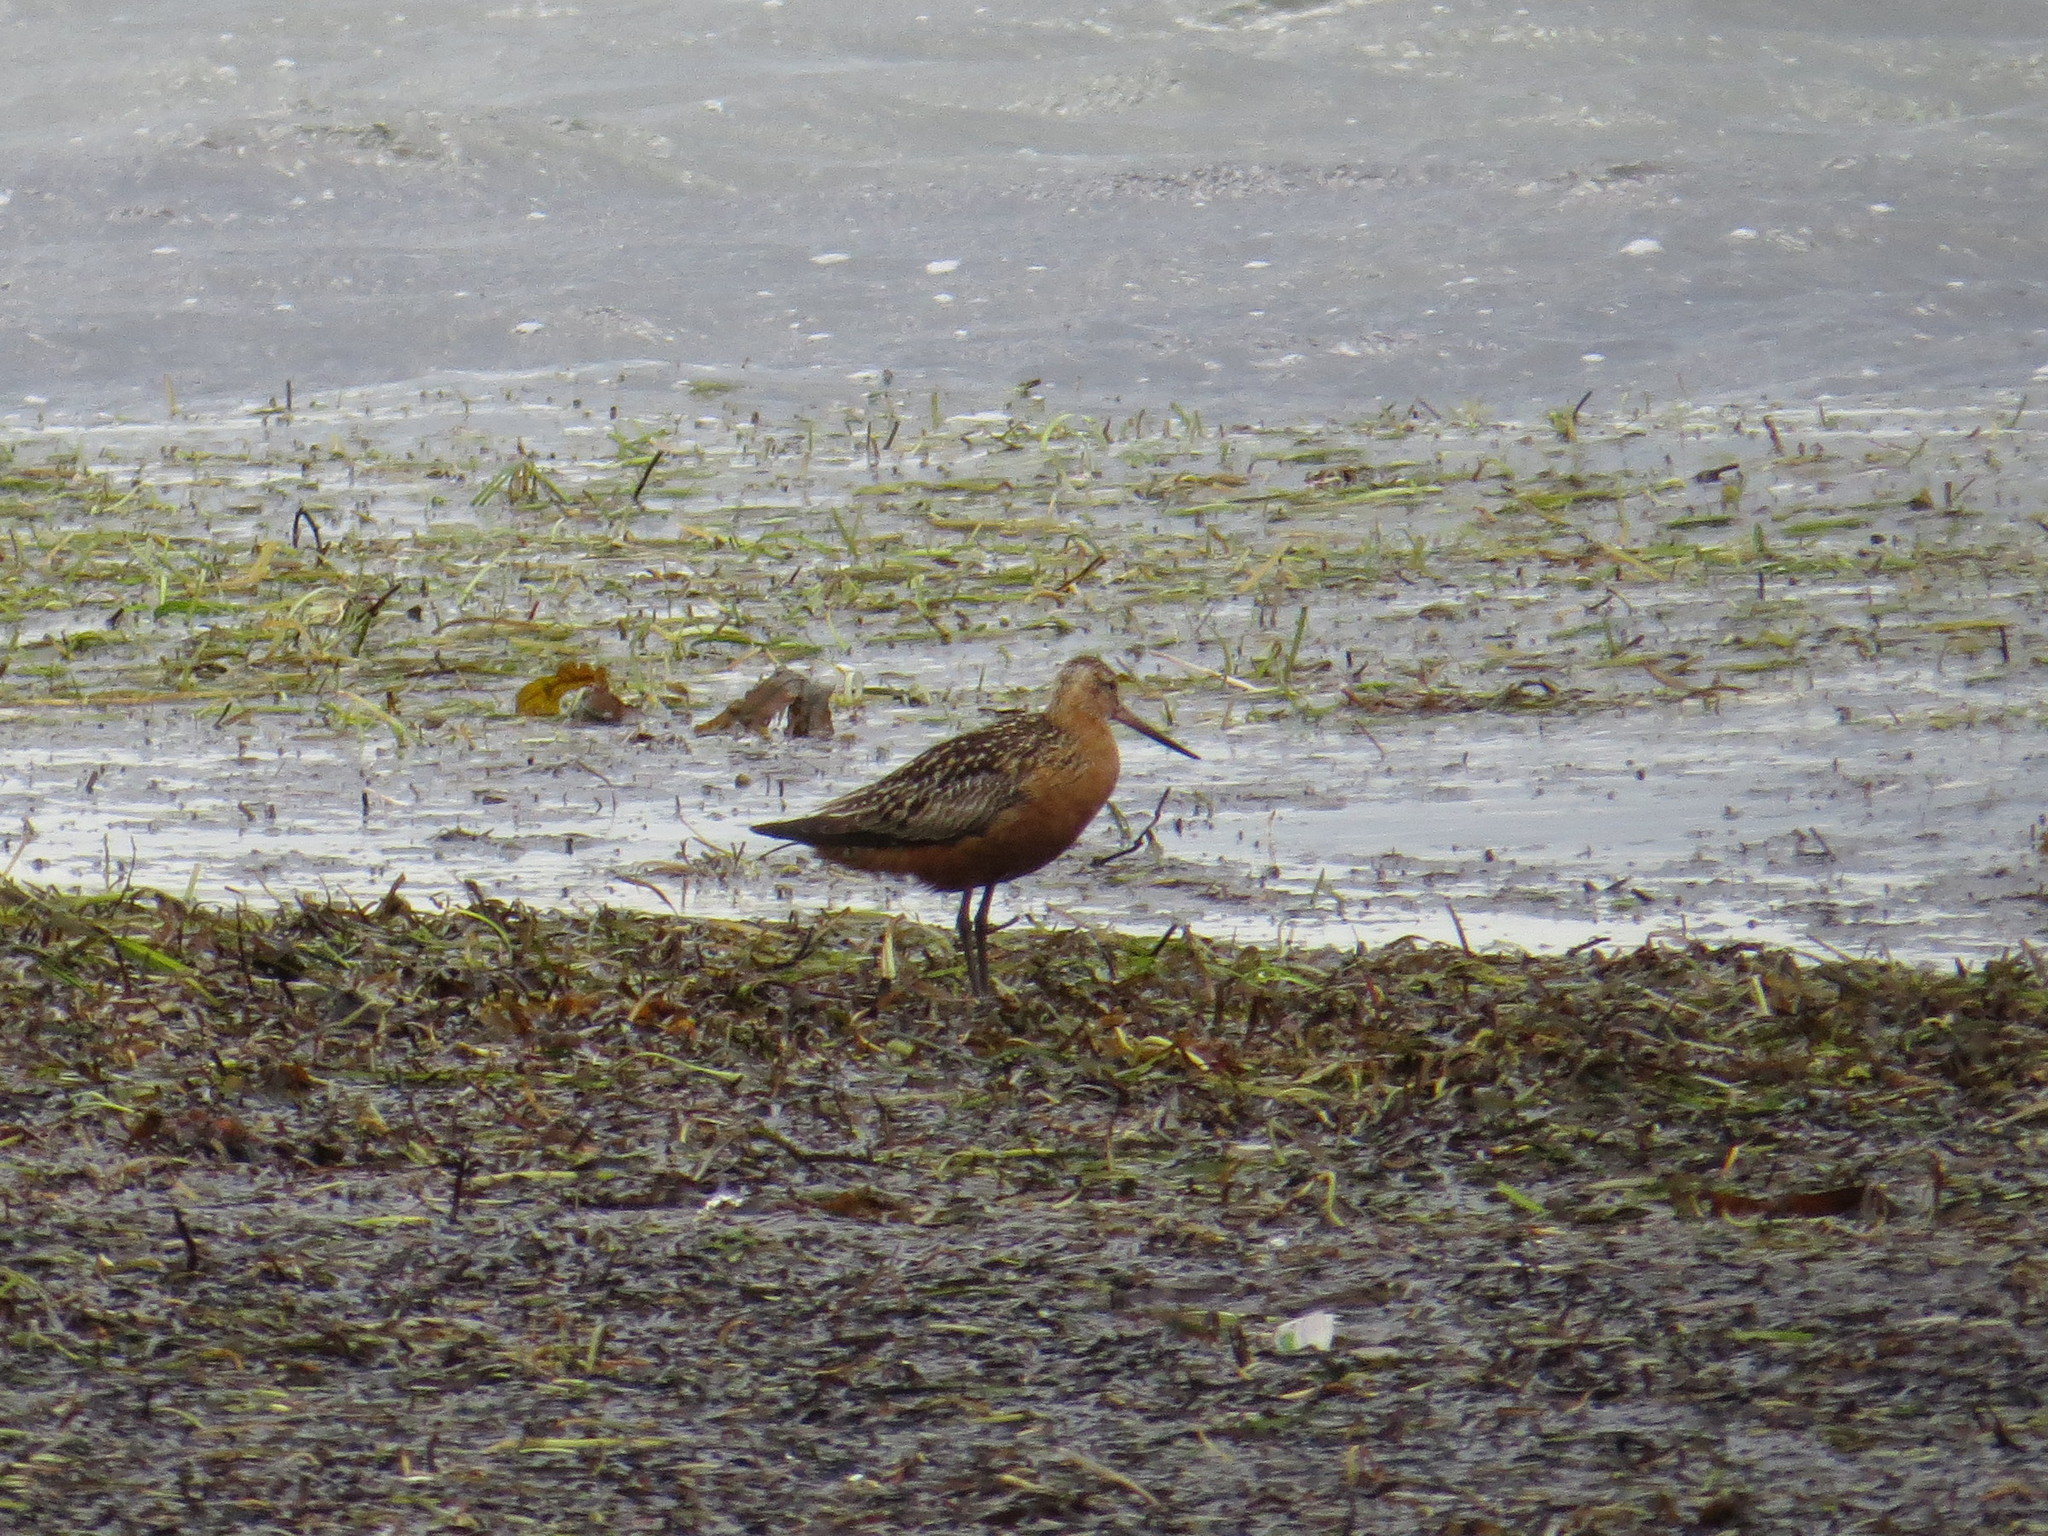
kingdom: Animalia
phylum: Chordata
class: Aves
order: Charadriiformes
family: Scolopacidae
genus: Limosa
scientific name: Limosa lapponica
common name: Bar-tailed godwit
